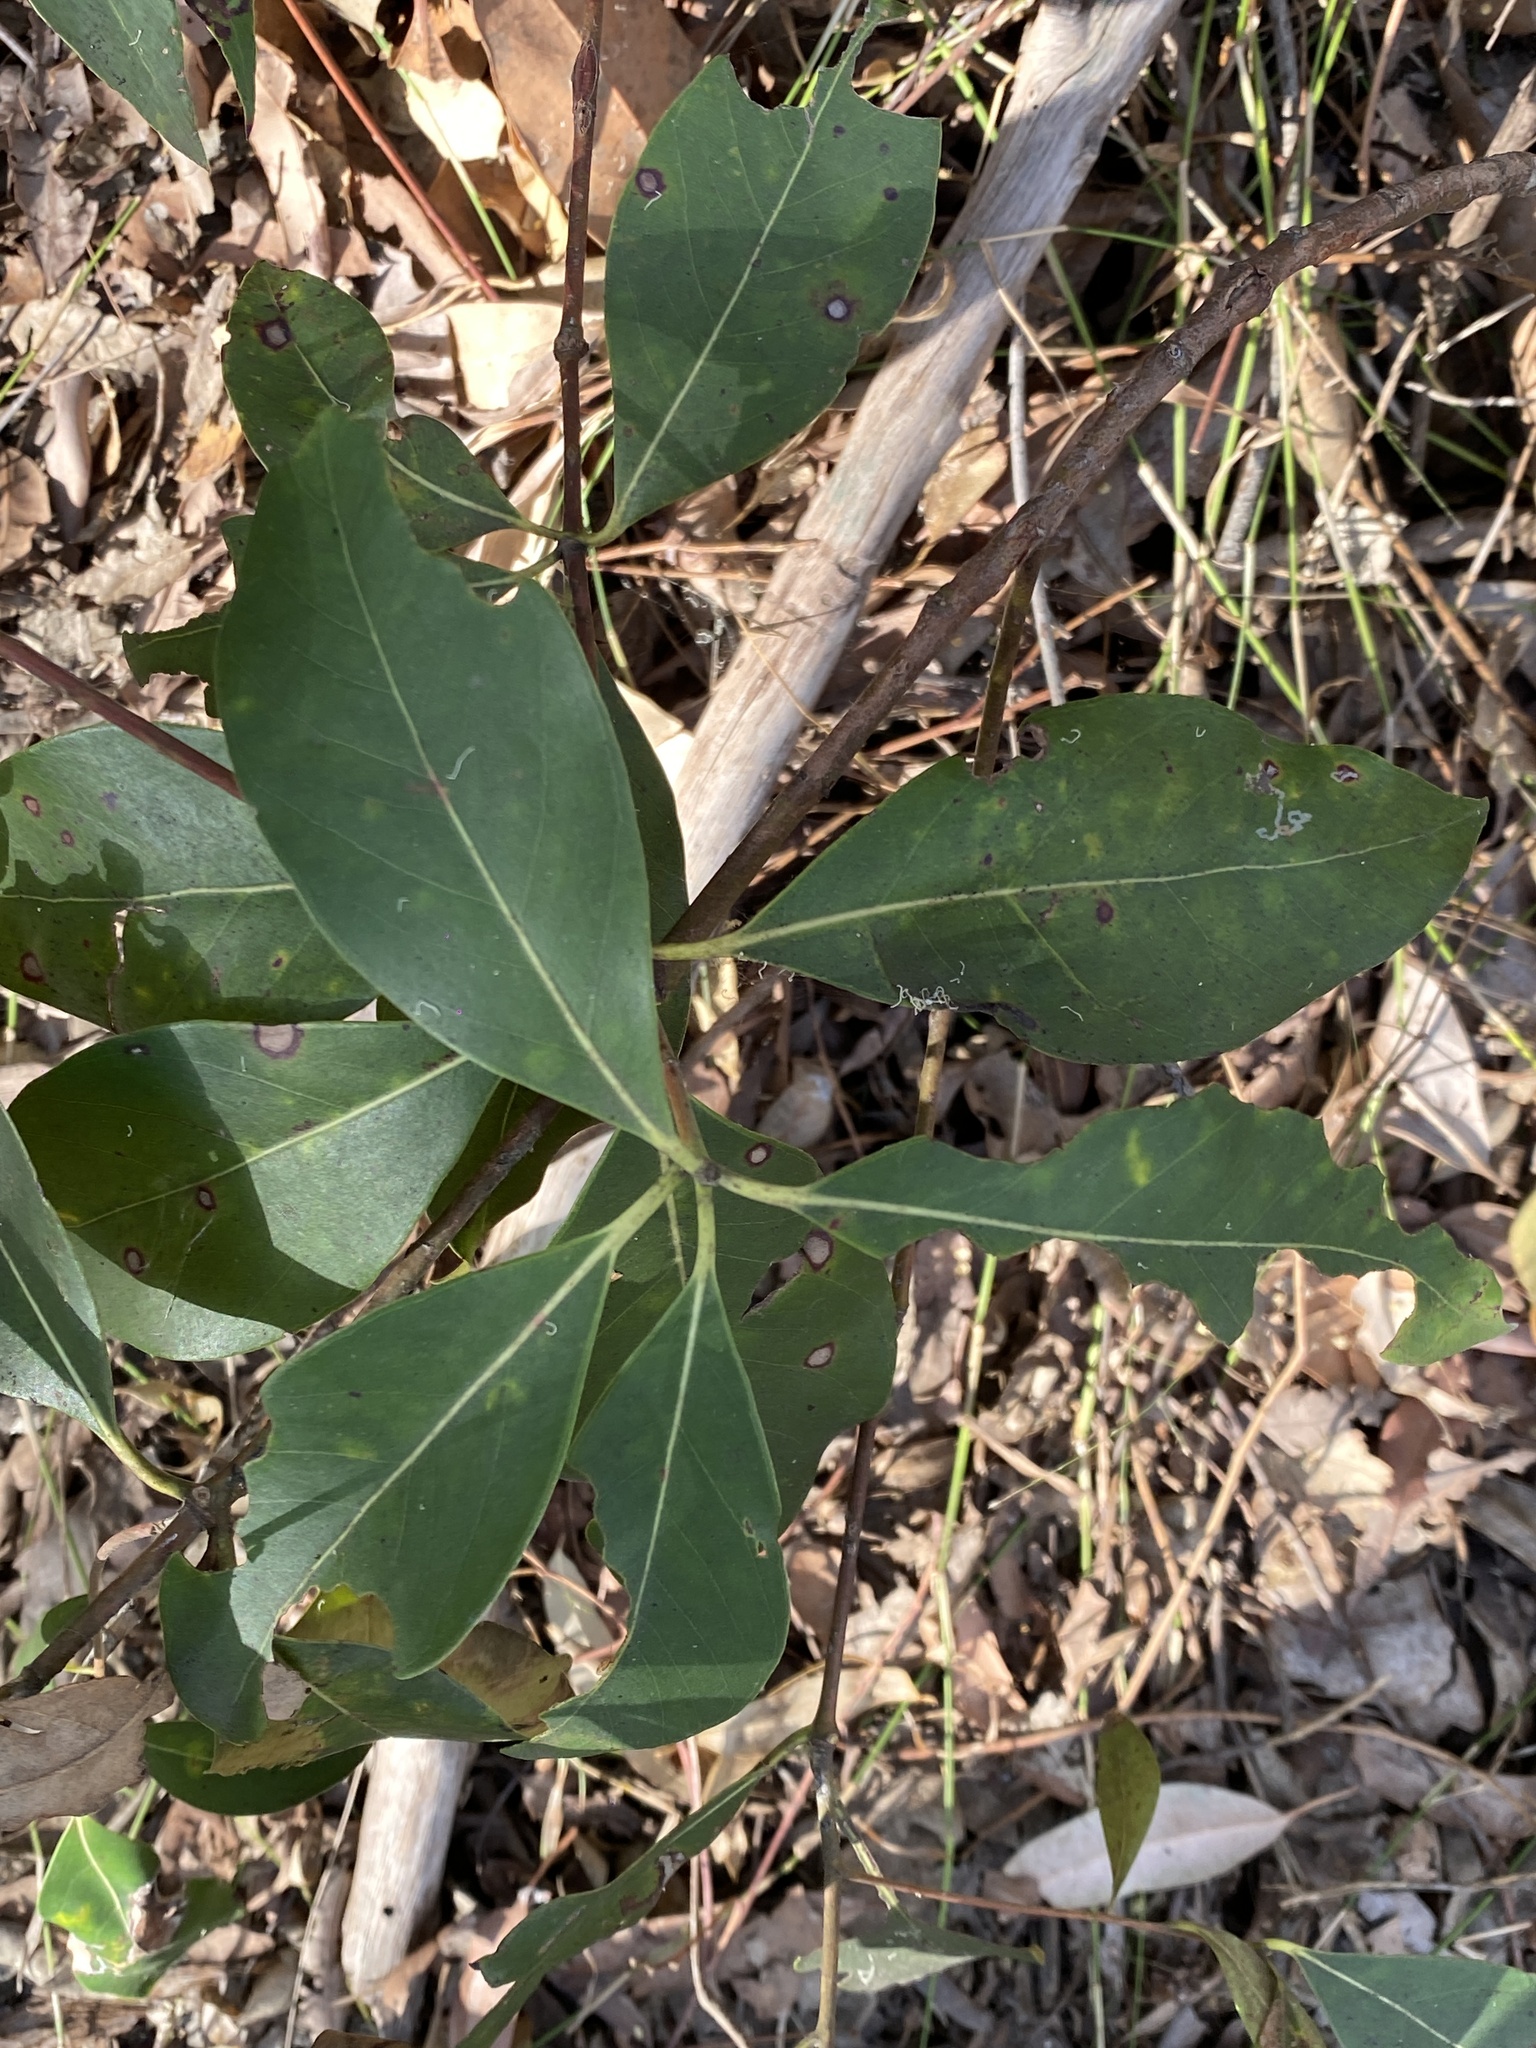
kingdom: Plantae
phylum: Tracheophyta
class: Magnoliopsida
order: Myrtales
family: Myrtaceae
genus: Lophostemon
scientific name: Lophostemon confertus
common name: Brisbane box
